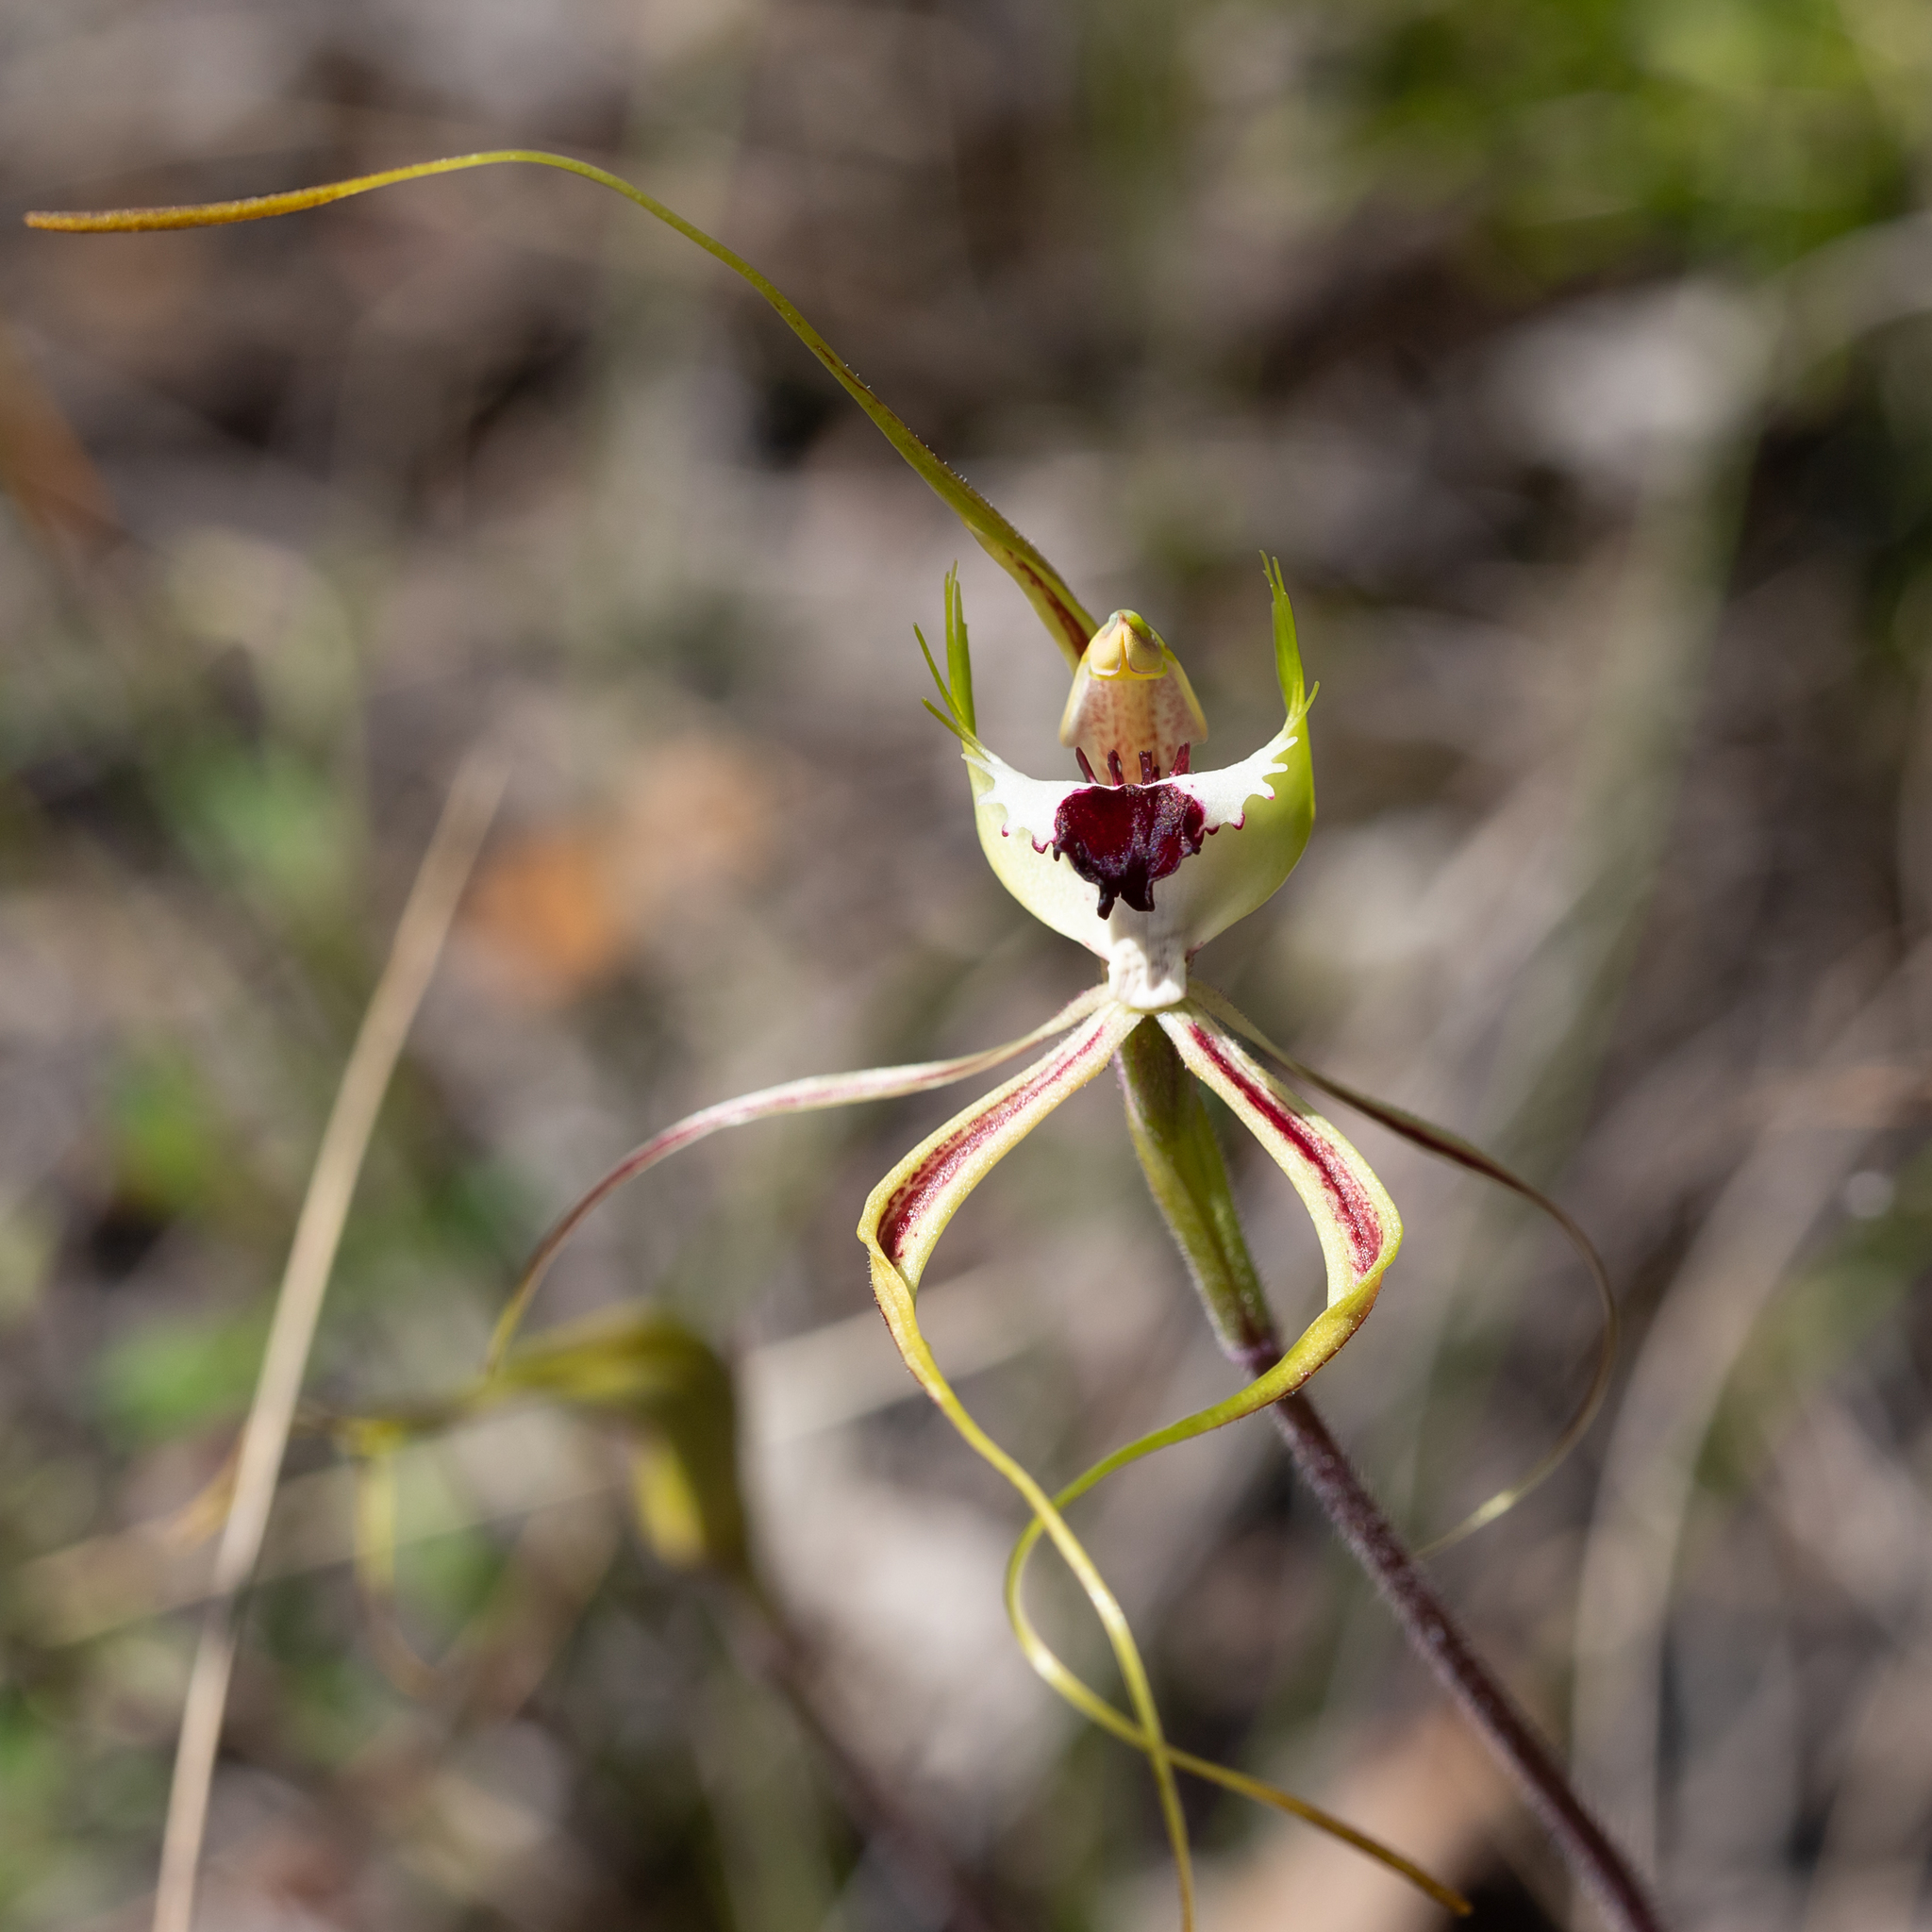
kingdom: Plantae
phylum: Tracheophyta
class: Liliopsida
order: Asparagales
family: Orchidaceae
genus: Caladenia
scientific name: Caladenia tentaculata
